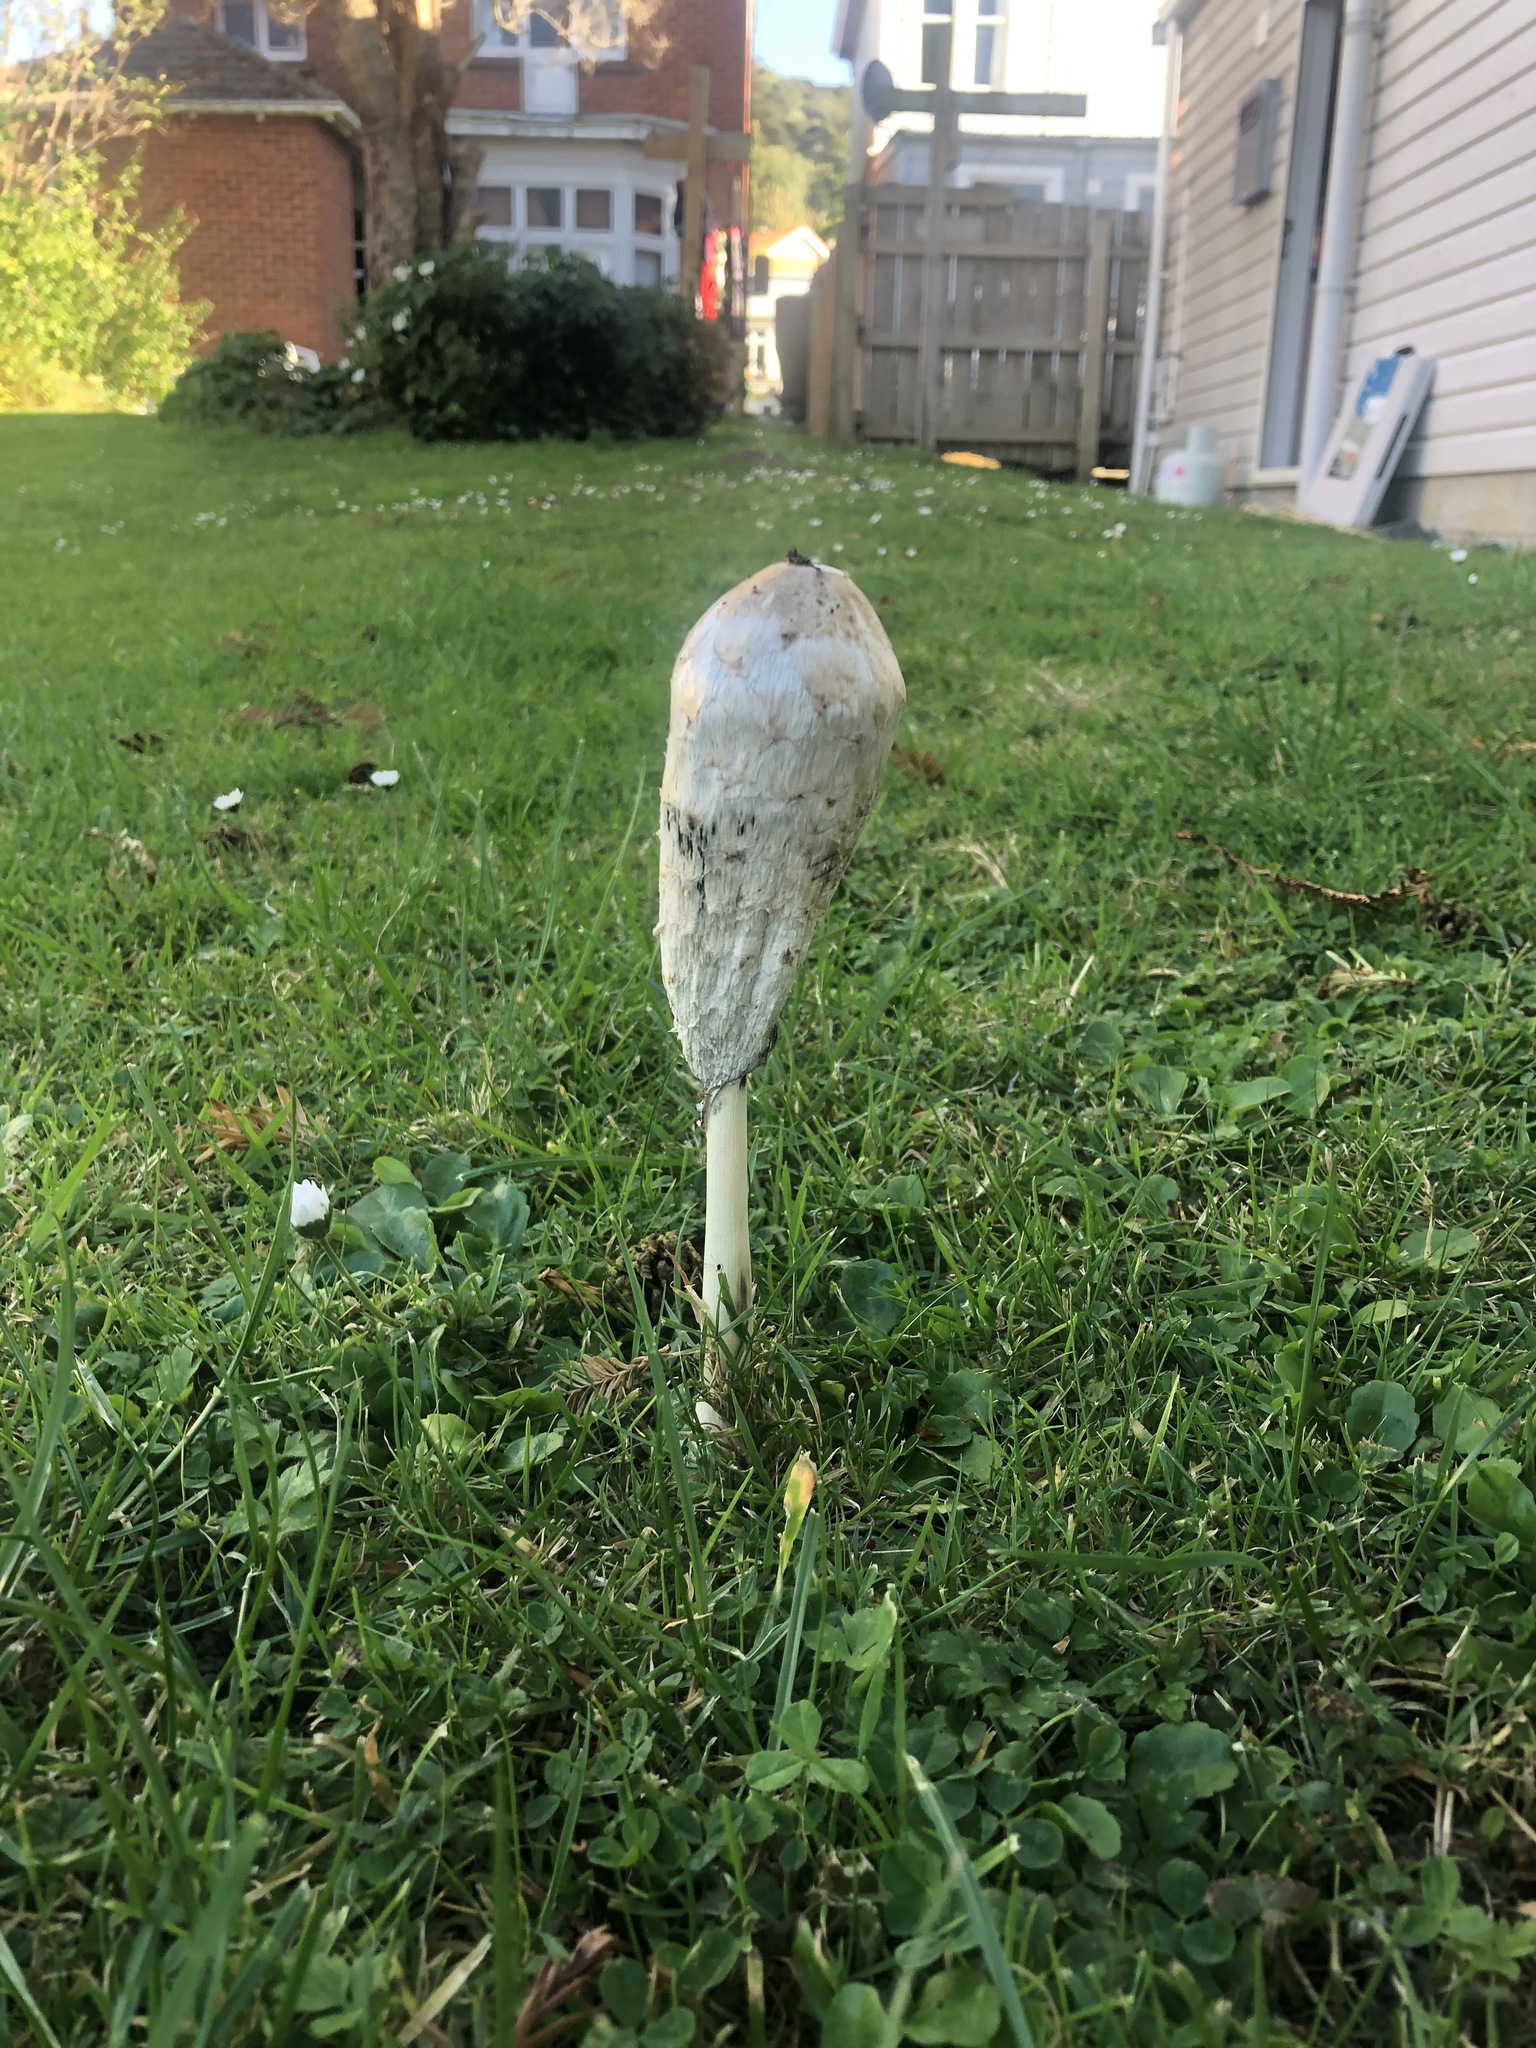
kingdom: Fungi
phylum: Basidiomycota
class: Agaricomycetes
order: Agaricales
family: Agaricaceae
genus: Coprinus
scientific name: Coprinus comatus
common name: Lawyer's wig
